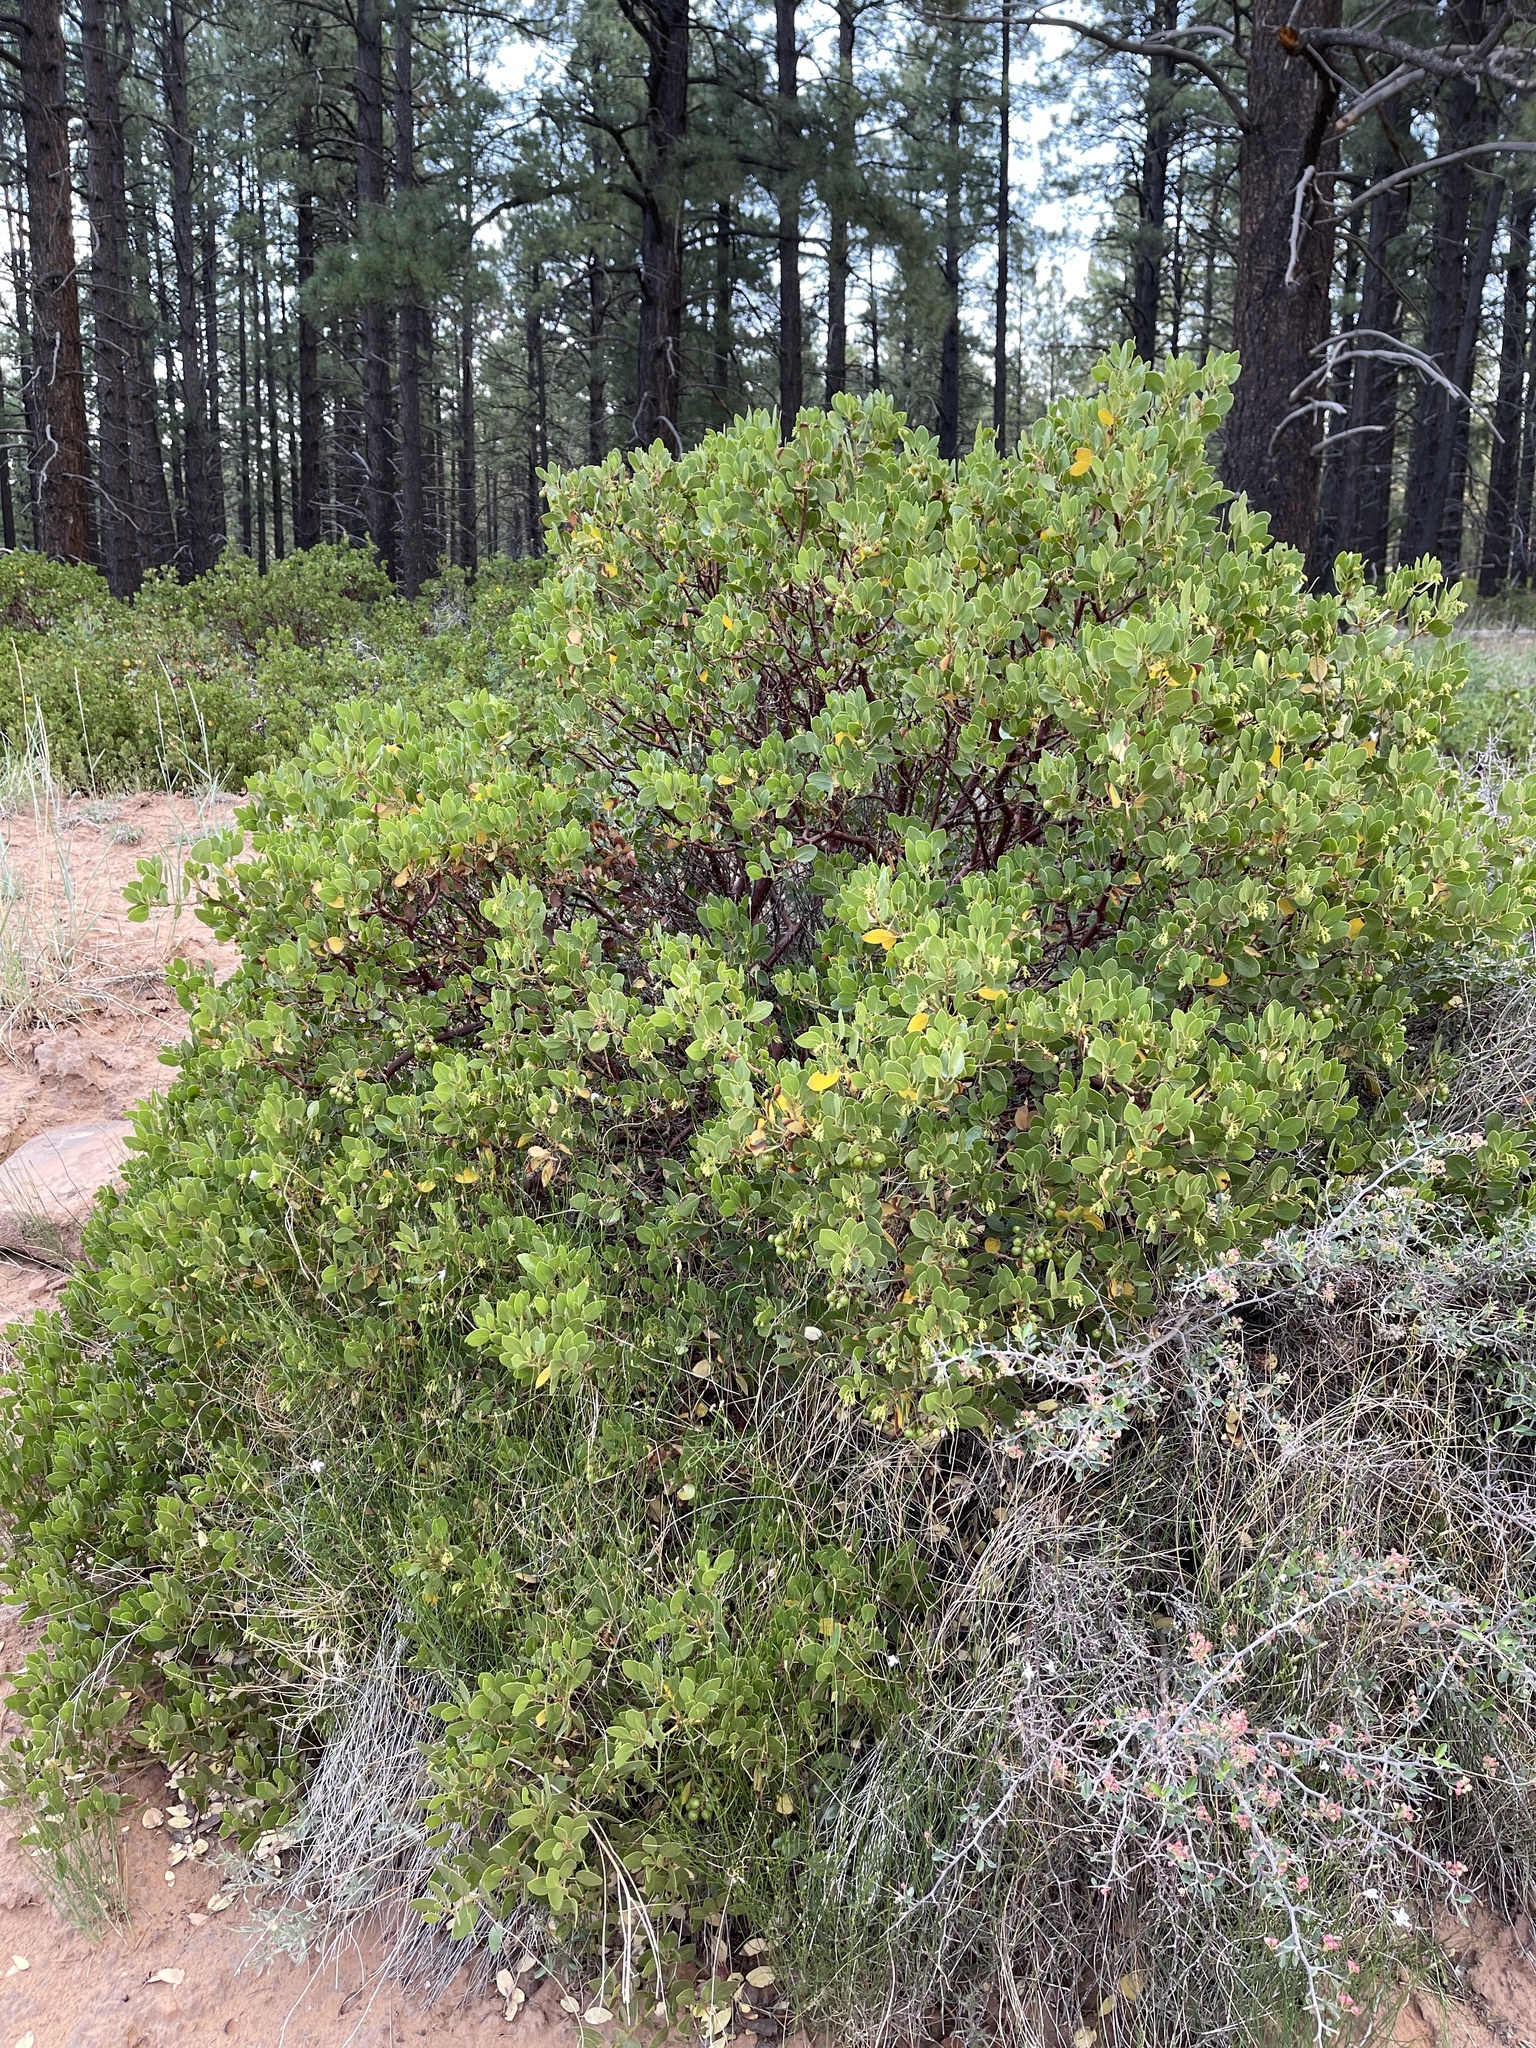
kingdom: Plantae
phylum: Tracheophyta
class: Magnoliopsida
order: Ericales
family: Ericaceae
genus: Arctostaphylos
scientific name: Arctostaphylos patula
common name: Green-leaf manzanita
